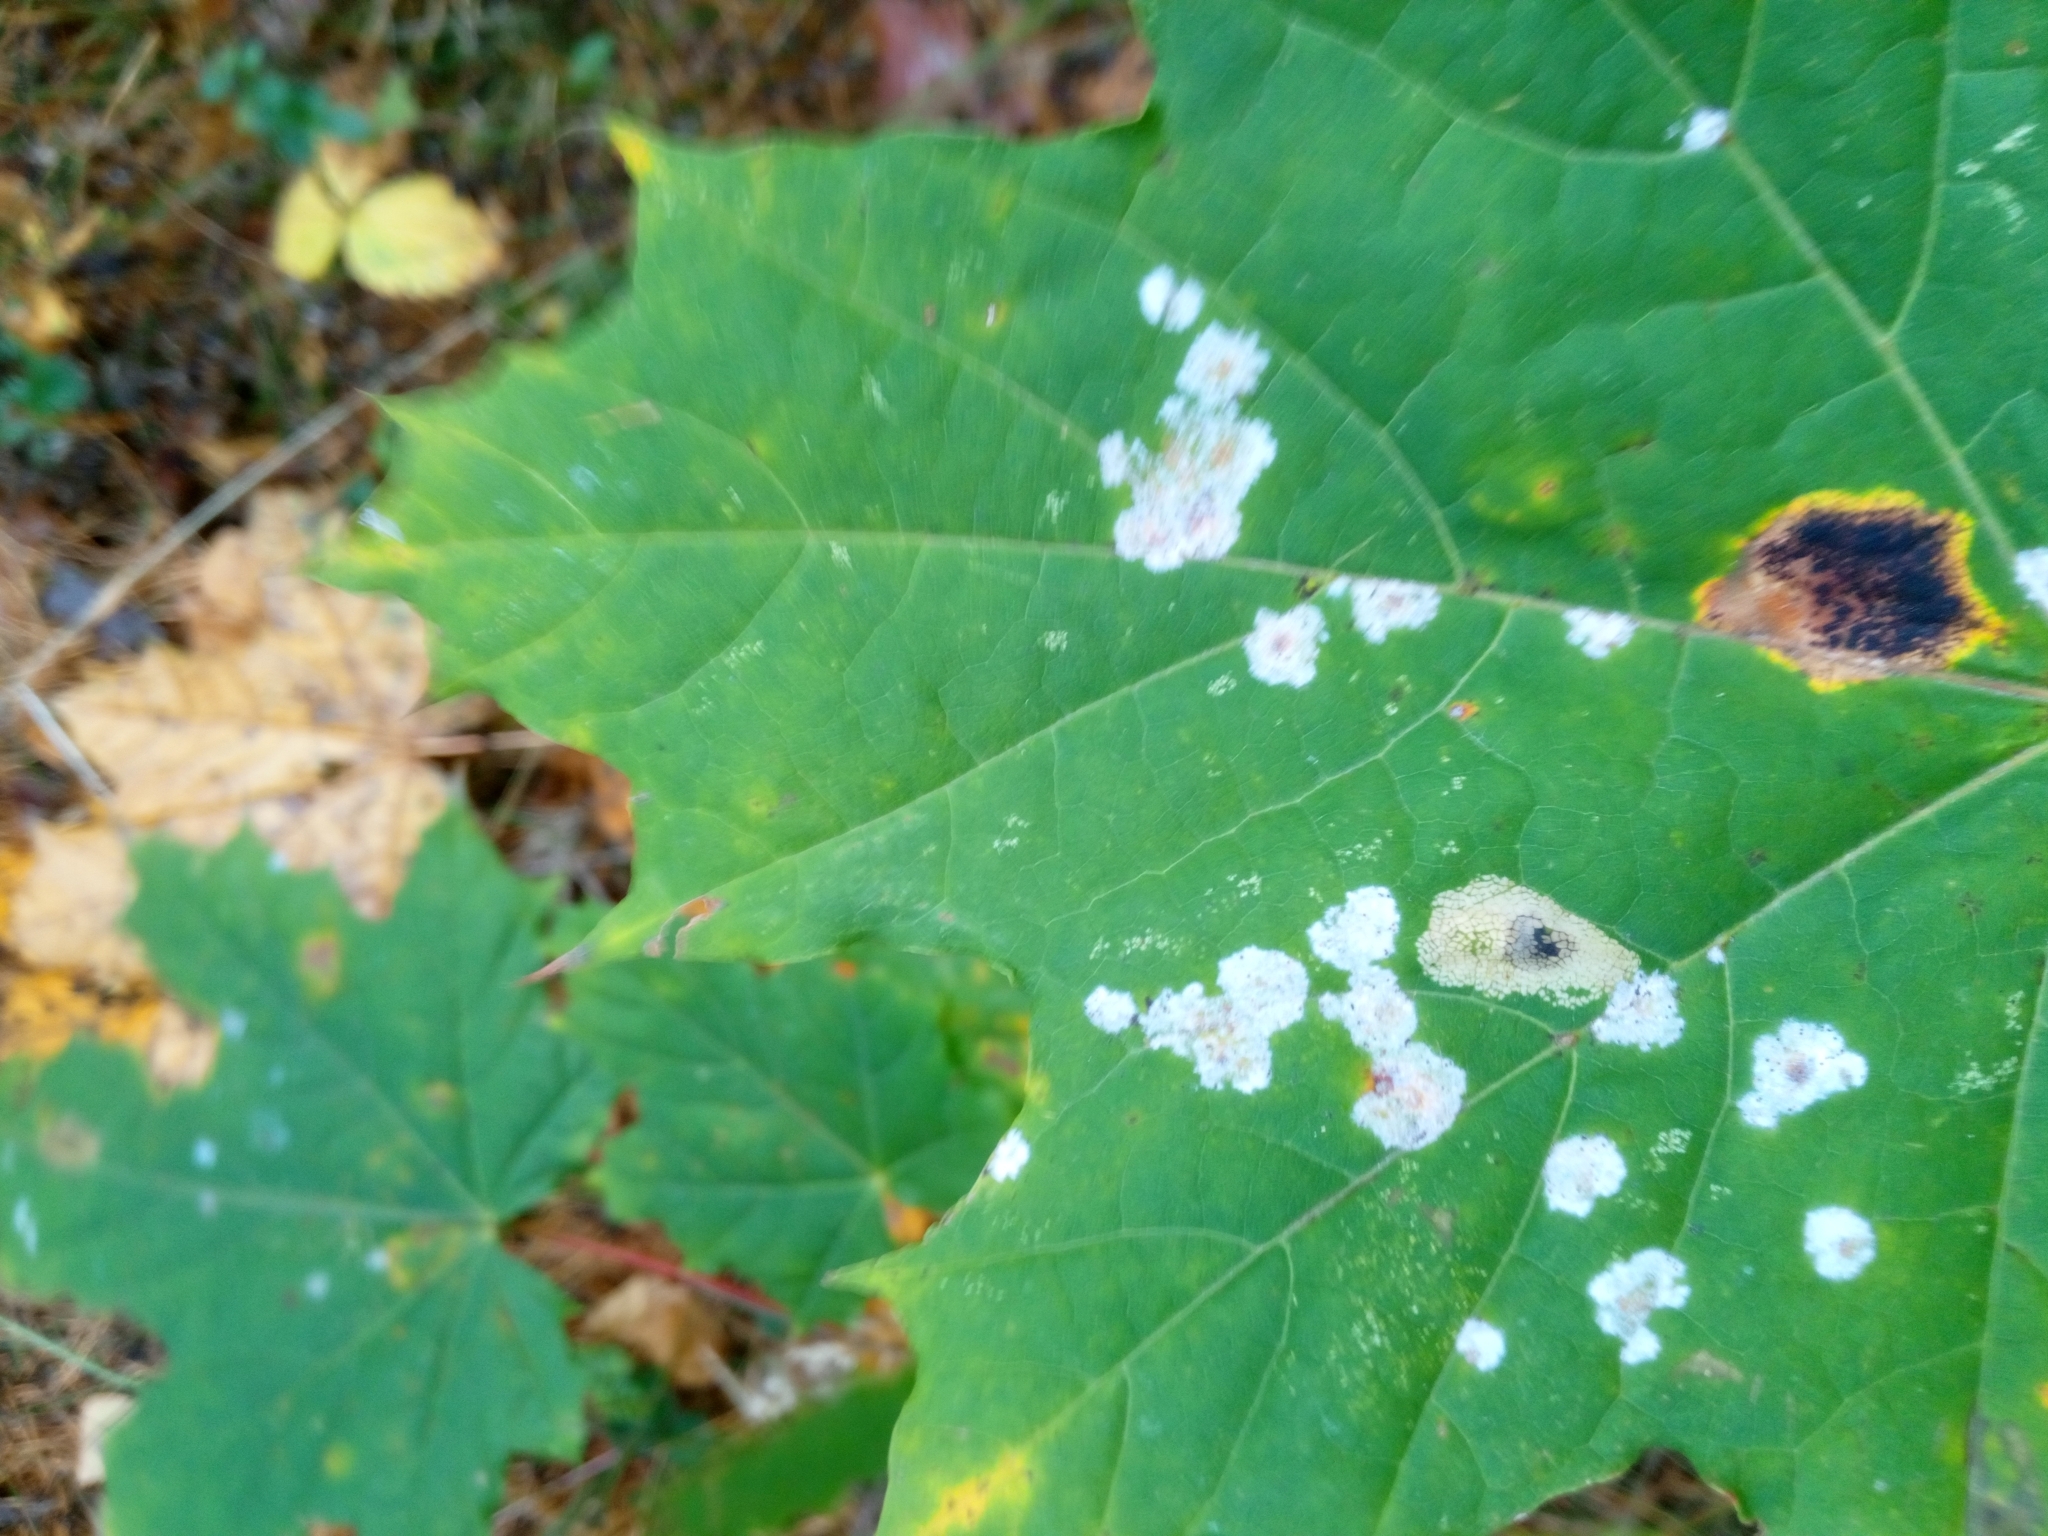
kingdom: Plantae
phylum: Tracheophyta
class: Magnoliopsida
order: Sapindales
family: Sapindaceae
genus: Acer
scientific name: Acer platanoides
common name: Norway maple
